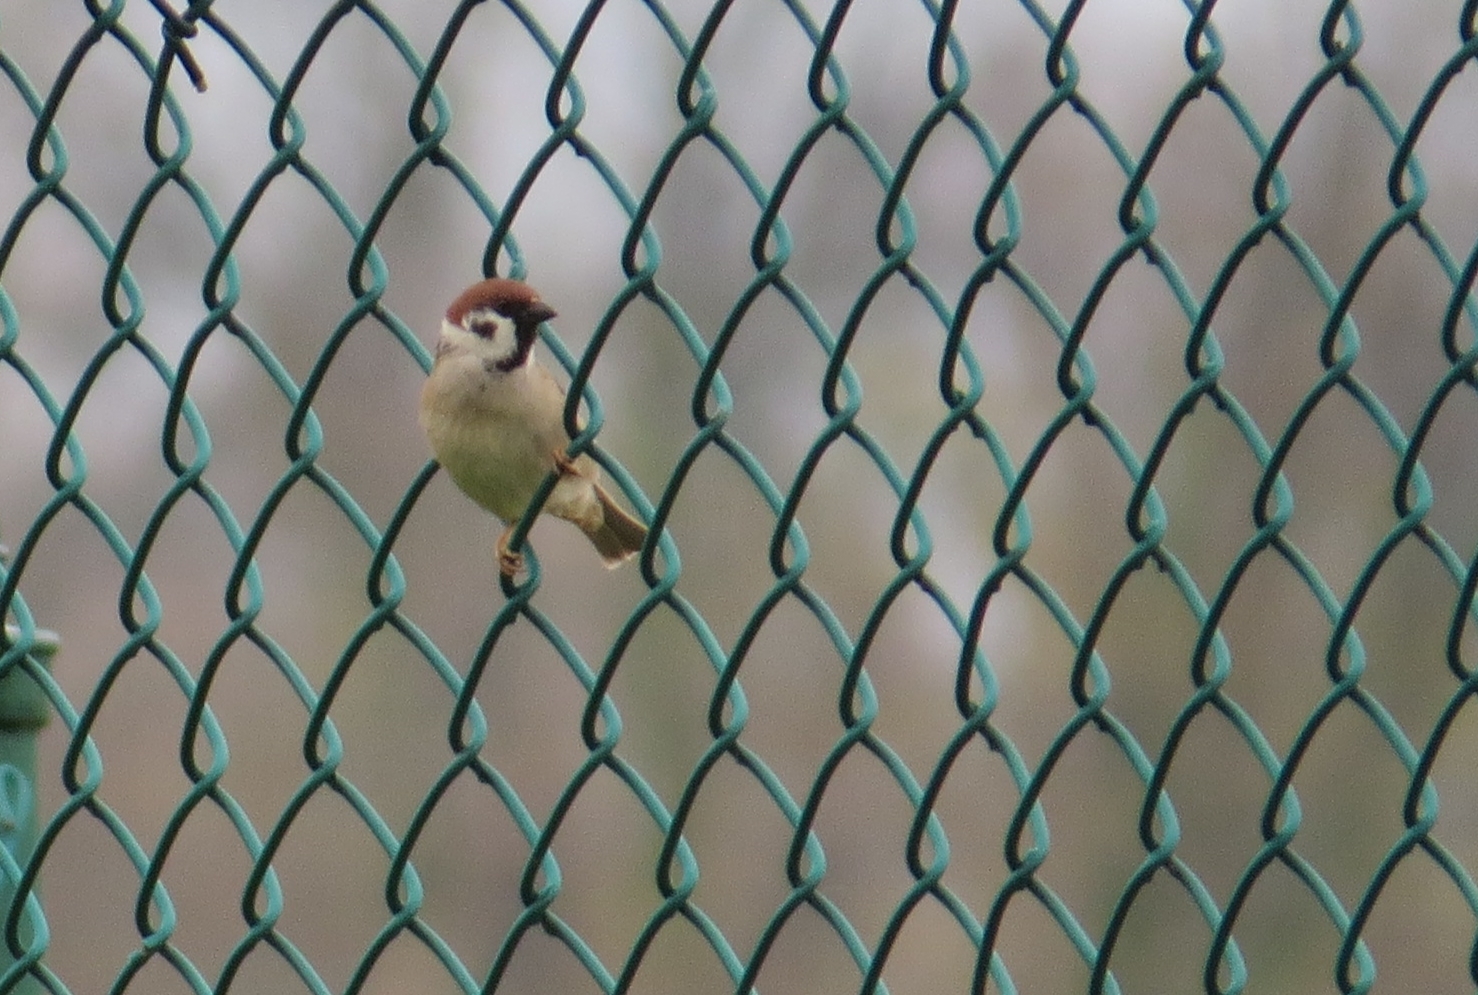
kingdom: Animalia
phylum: Chordata
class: Aves
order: Passeriformes
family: Passeridae
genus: Passer
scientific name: Passer montanus
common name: Eurasian tree sparrow
